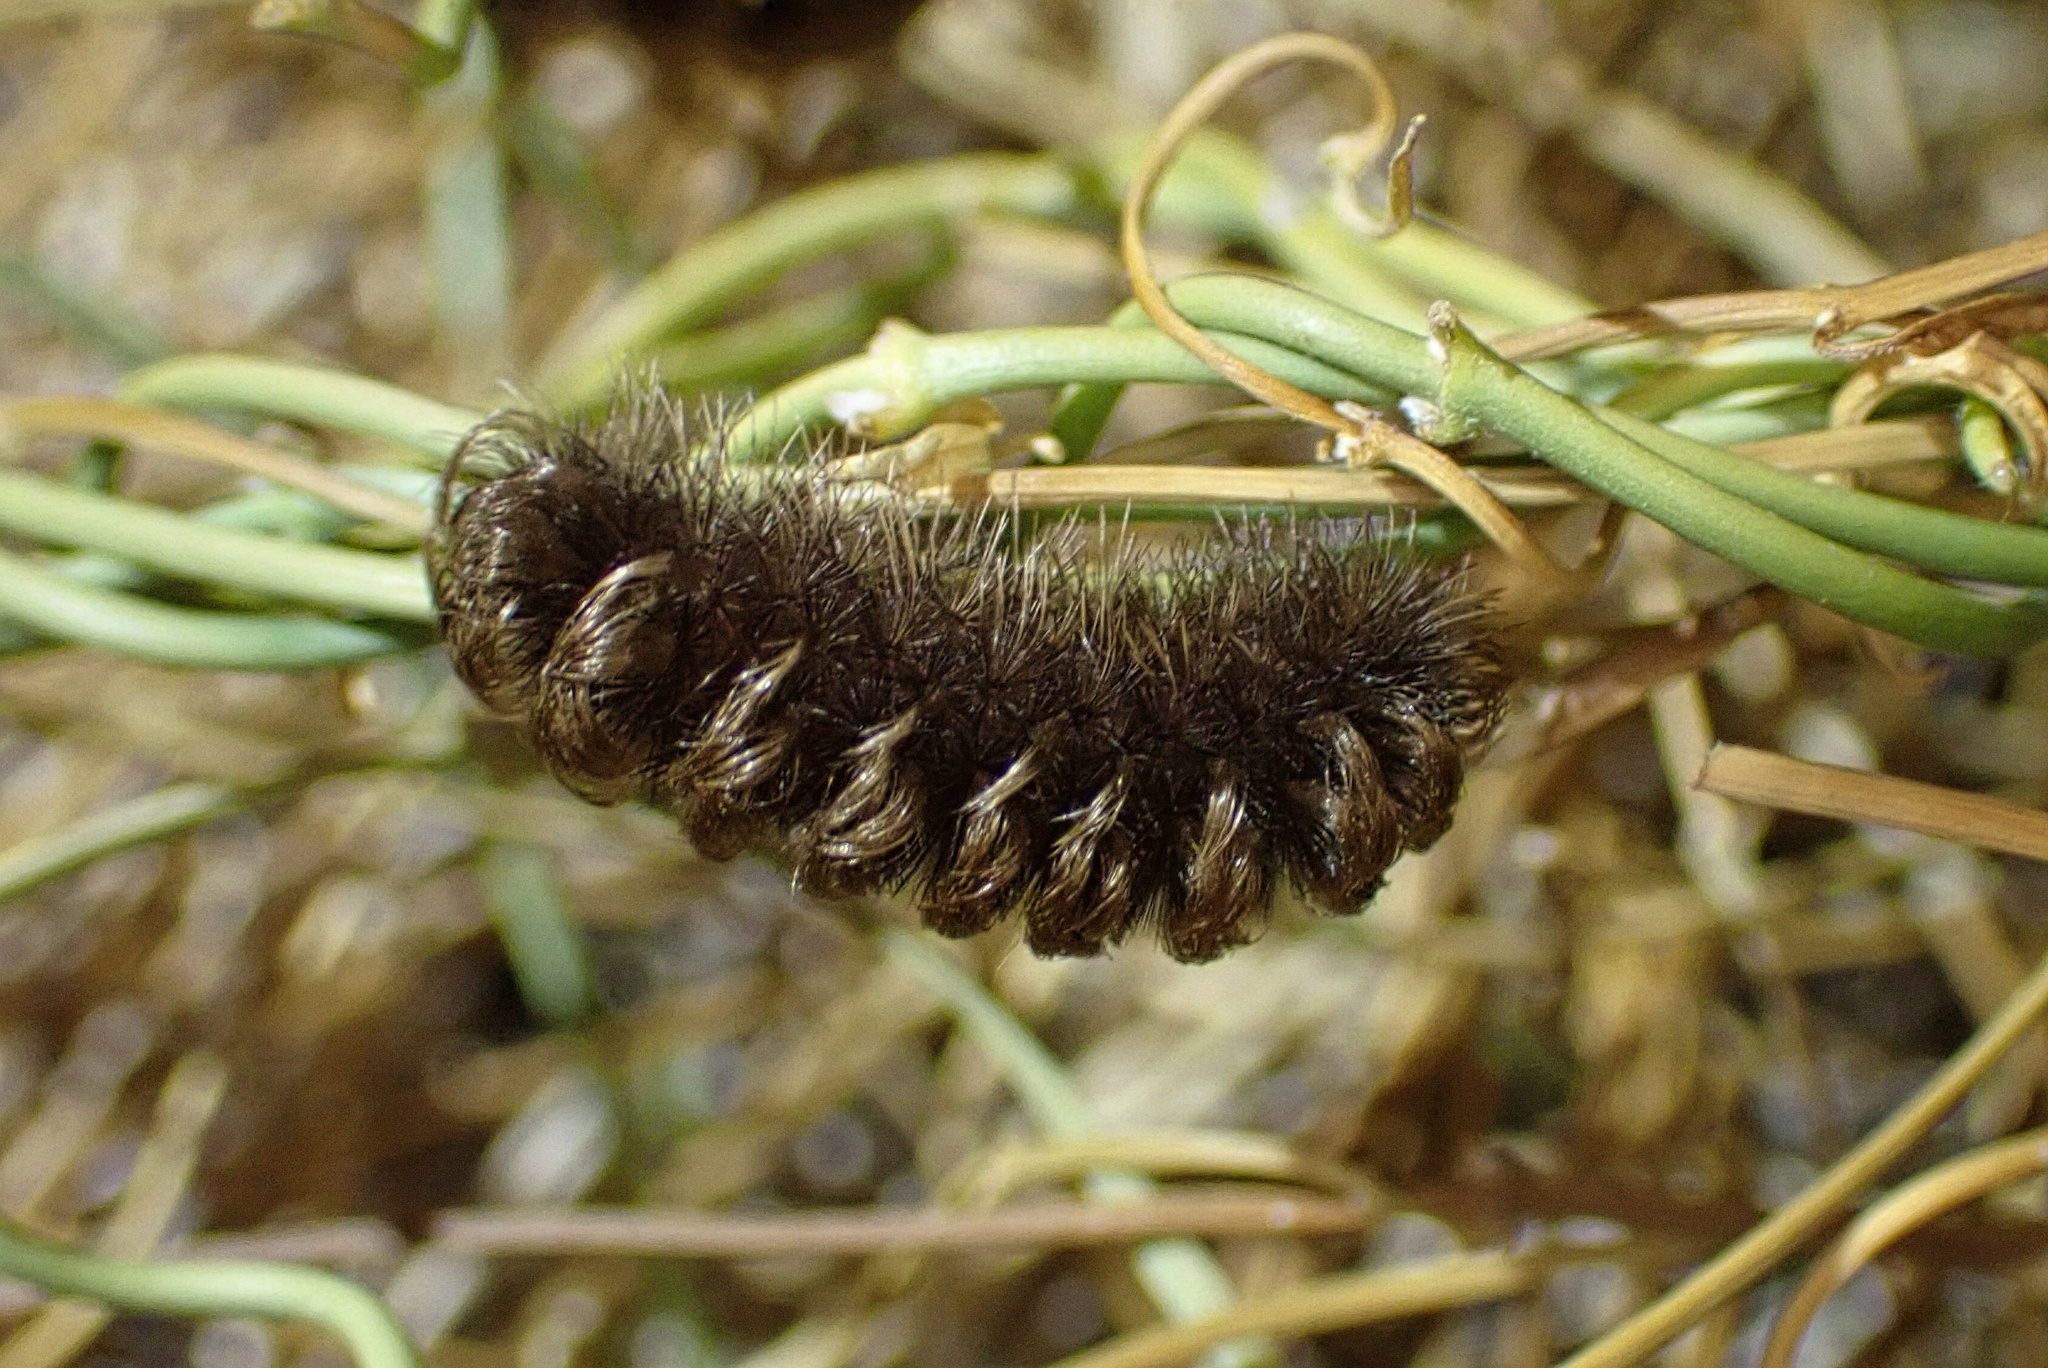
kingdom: Animalia
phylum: Arthropoda
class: Insecta
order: Lepidoptera
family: Erebidae
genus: Ectypia
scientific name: Ectypia clio
